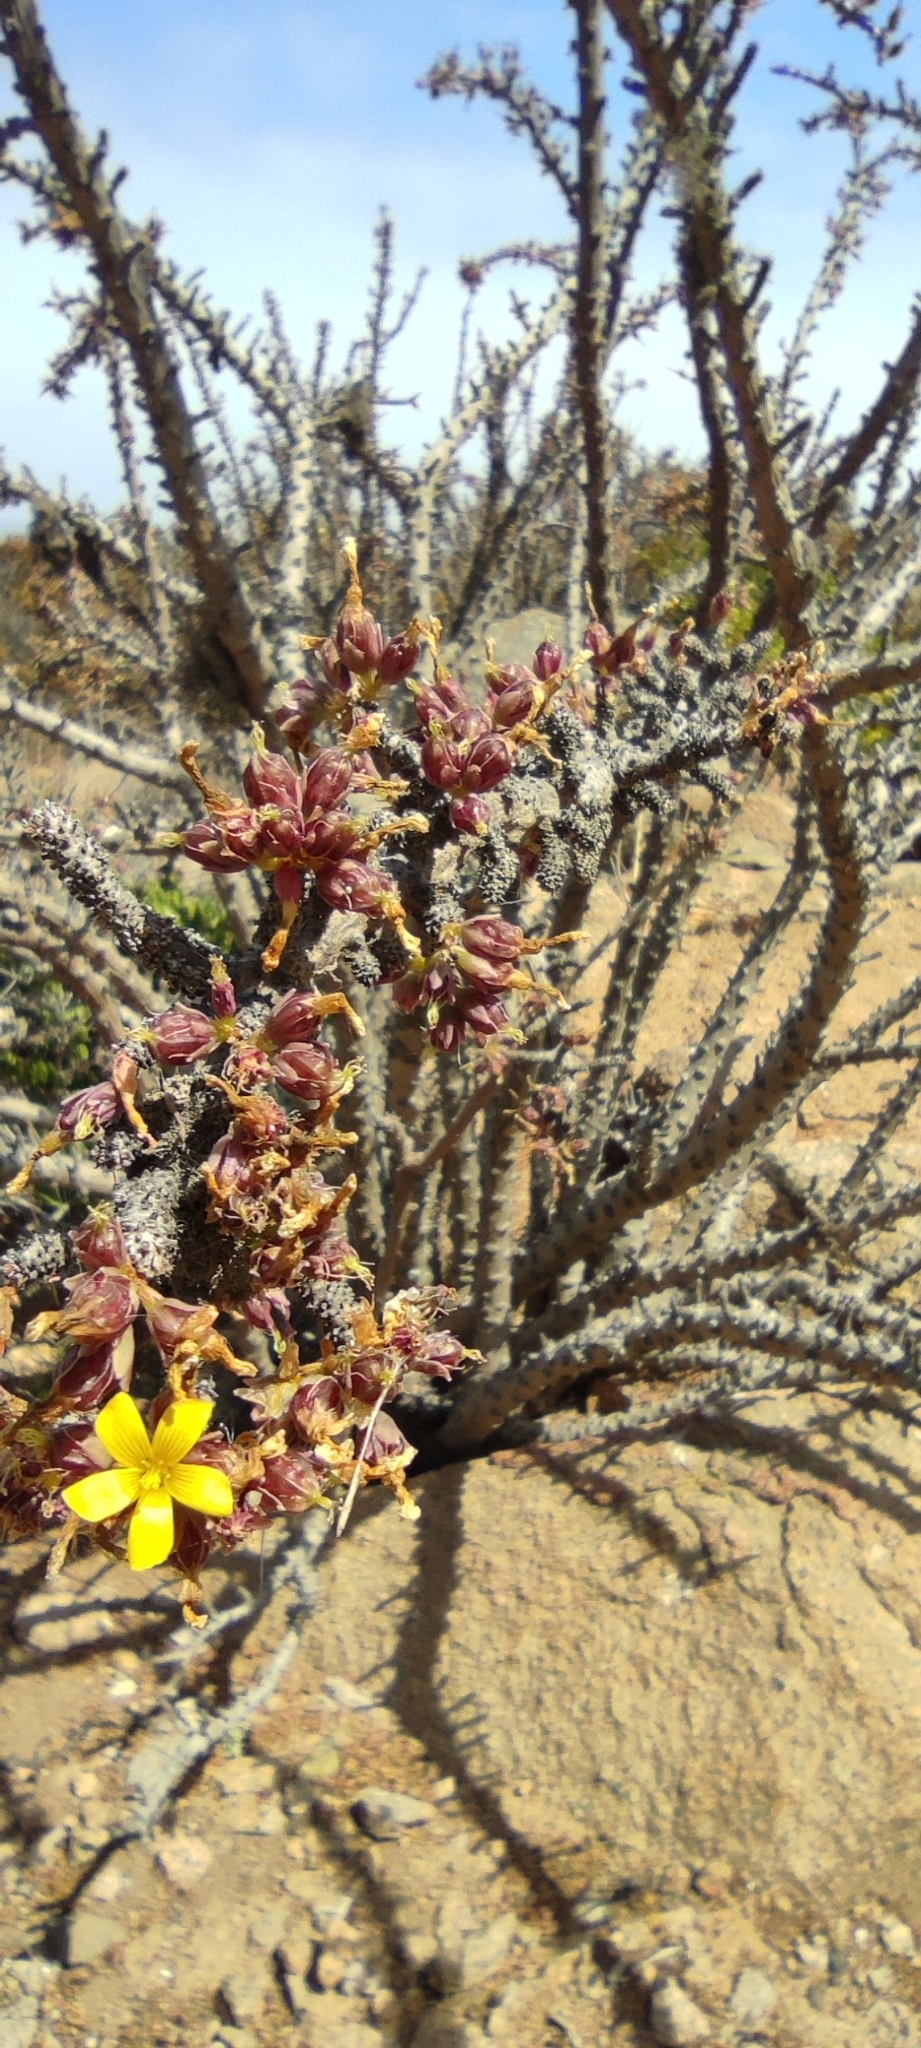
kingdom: Plantae
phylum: Tracheophyta
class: Magnoliopsida
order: Oxalidales
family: Oxalidaceae
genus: Oxalis
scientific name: Oxalis gigantea
